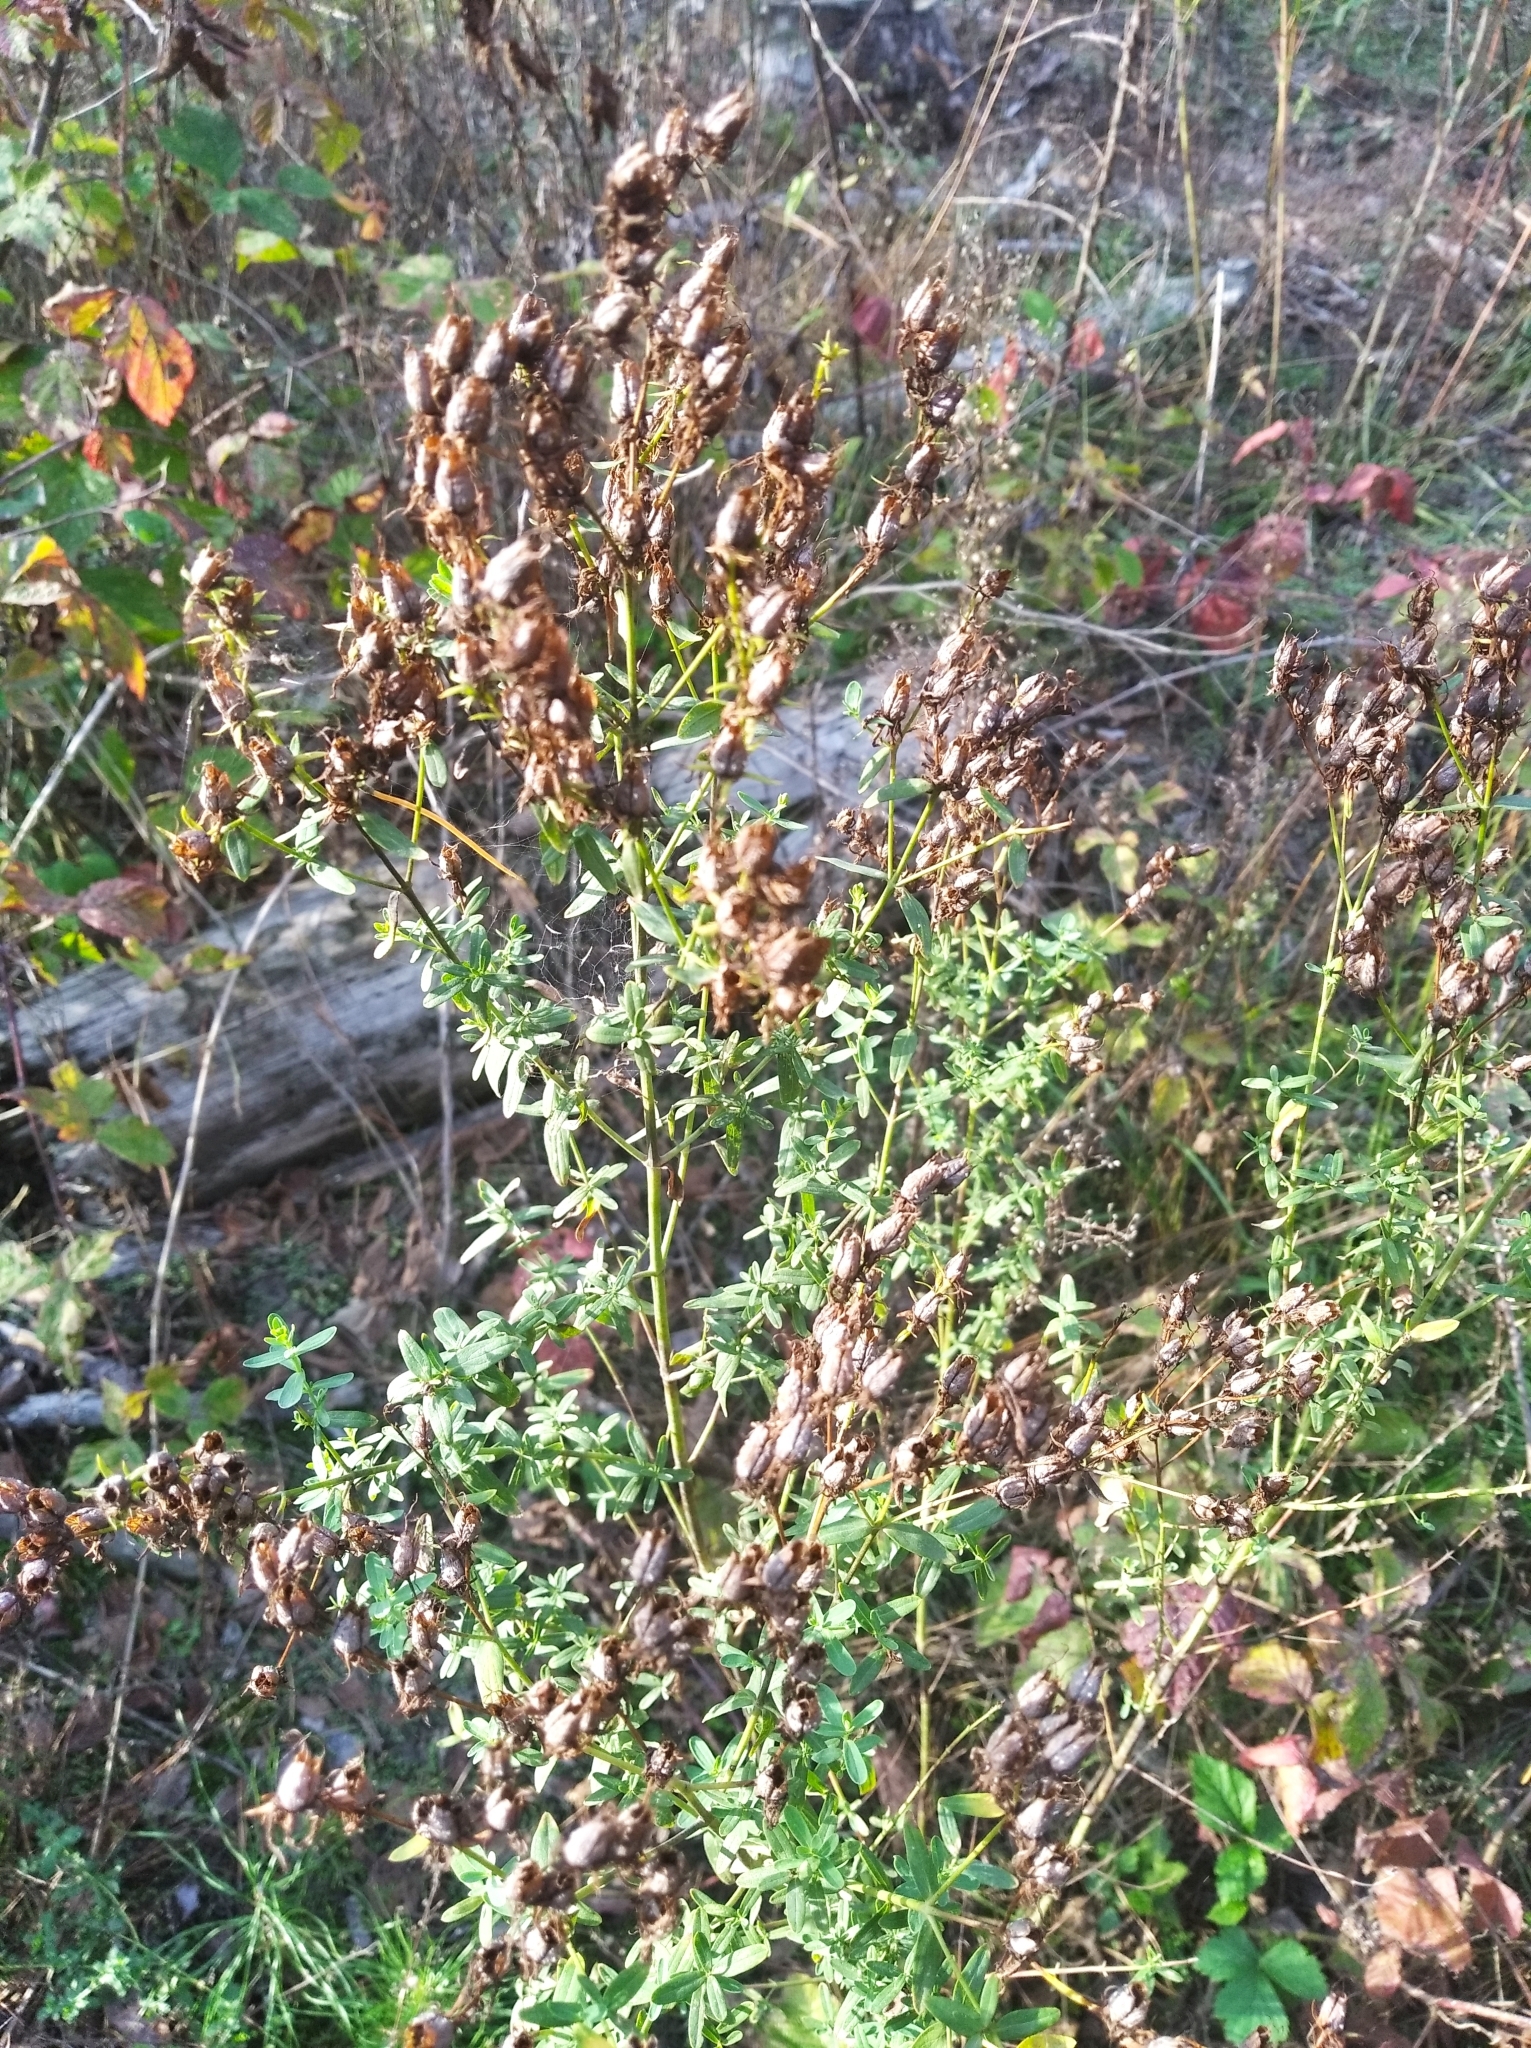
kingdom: Plantae
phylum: Tracheophyta
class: Magnoliopsida
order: Malpighiales
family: Hypericaceae
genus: Hypericum
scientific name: Hypericum perforatum
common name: Common st. johnswort
